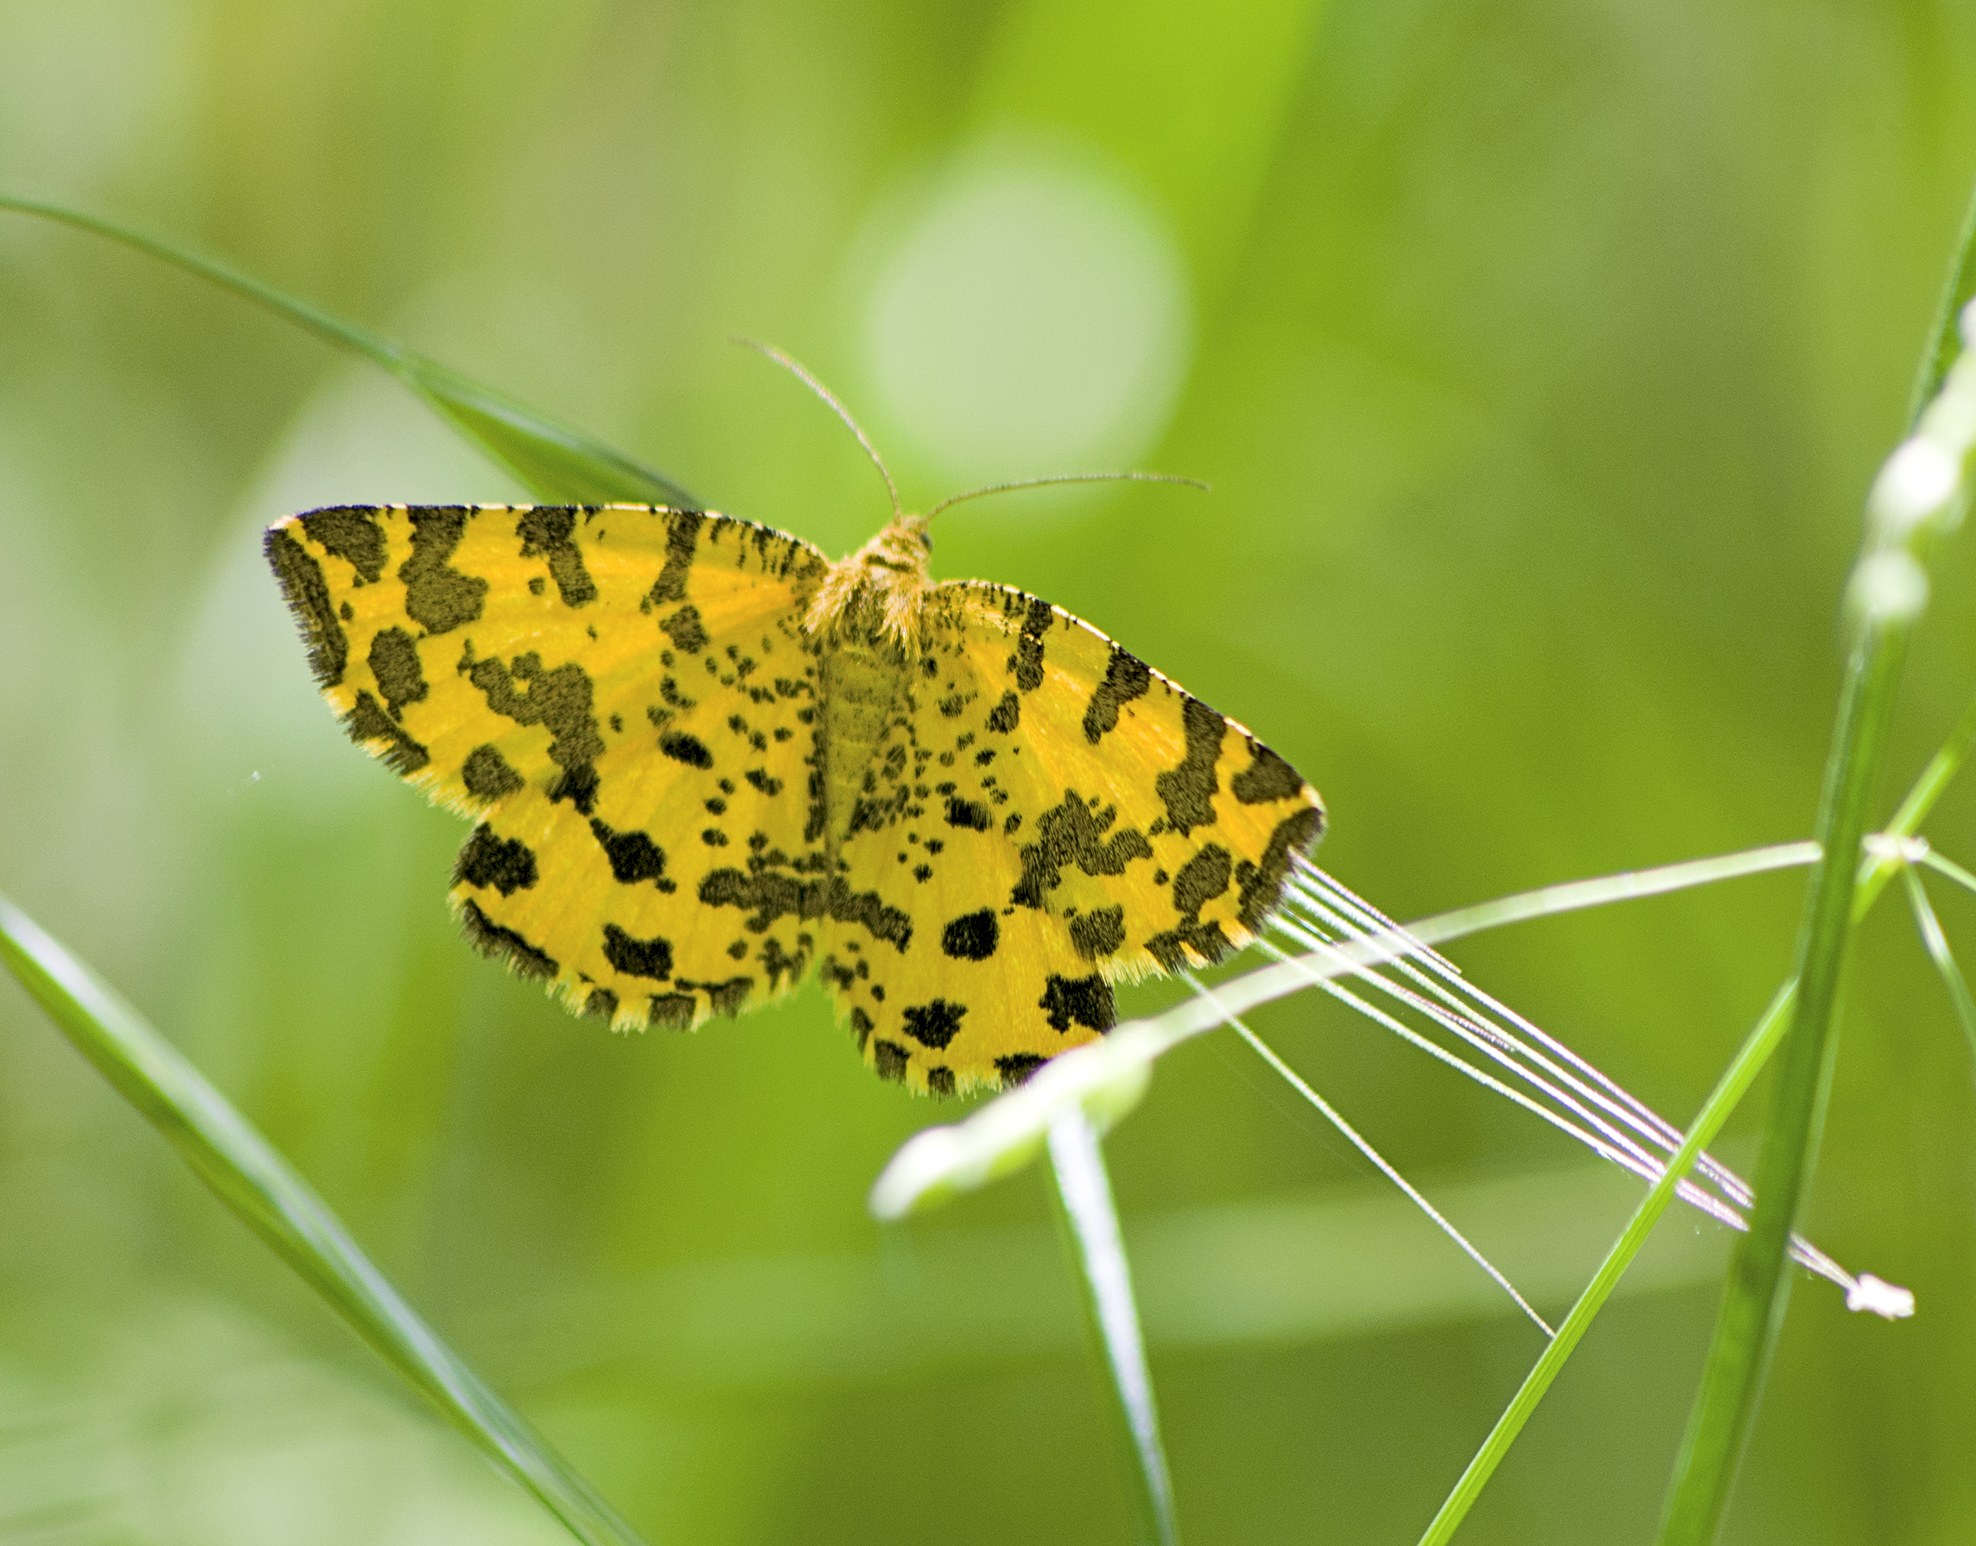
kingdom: Animalia
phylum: Arthropoda
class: Insecta
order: Lepidoptera
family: Geometridae
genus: Pseudopanthera
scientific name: Pseudopanthera macularia
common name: Speckled yellow
